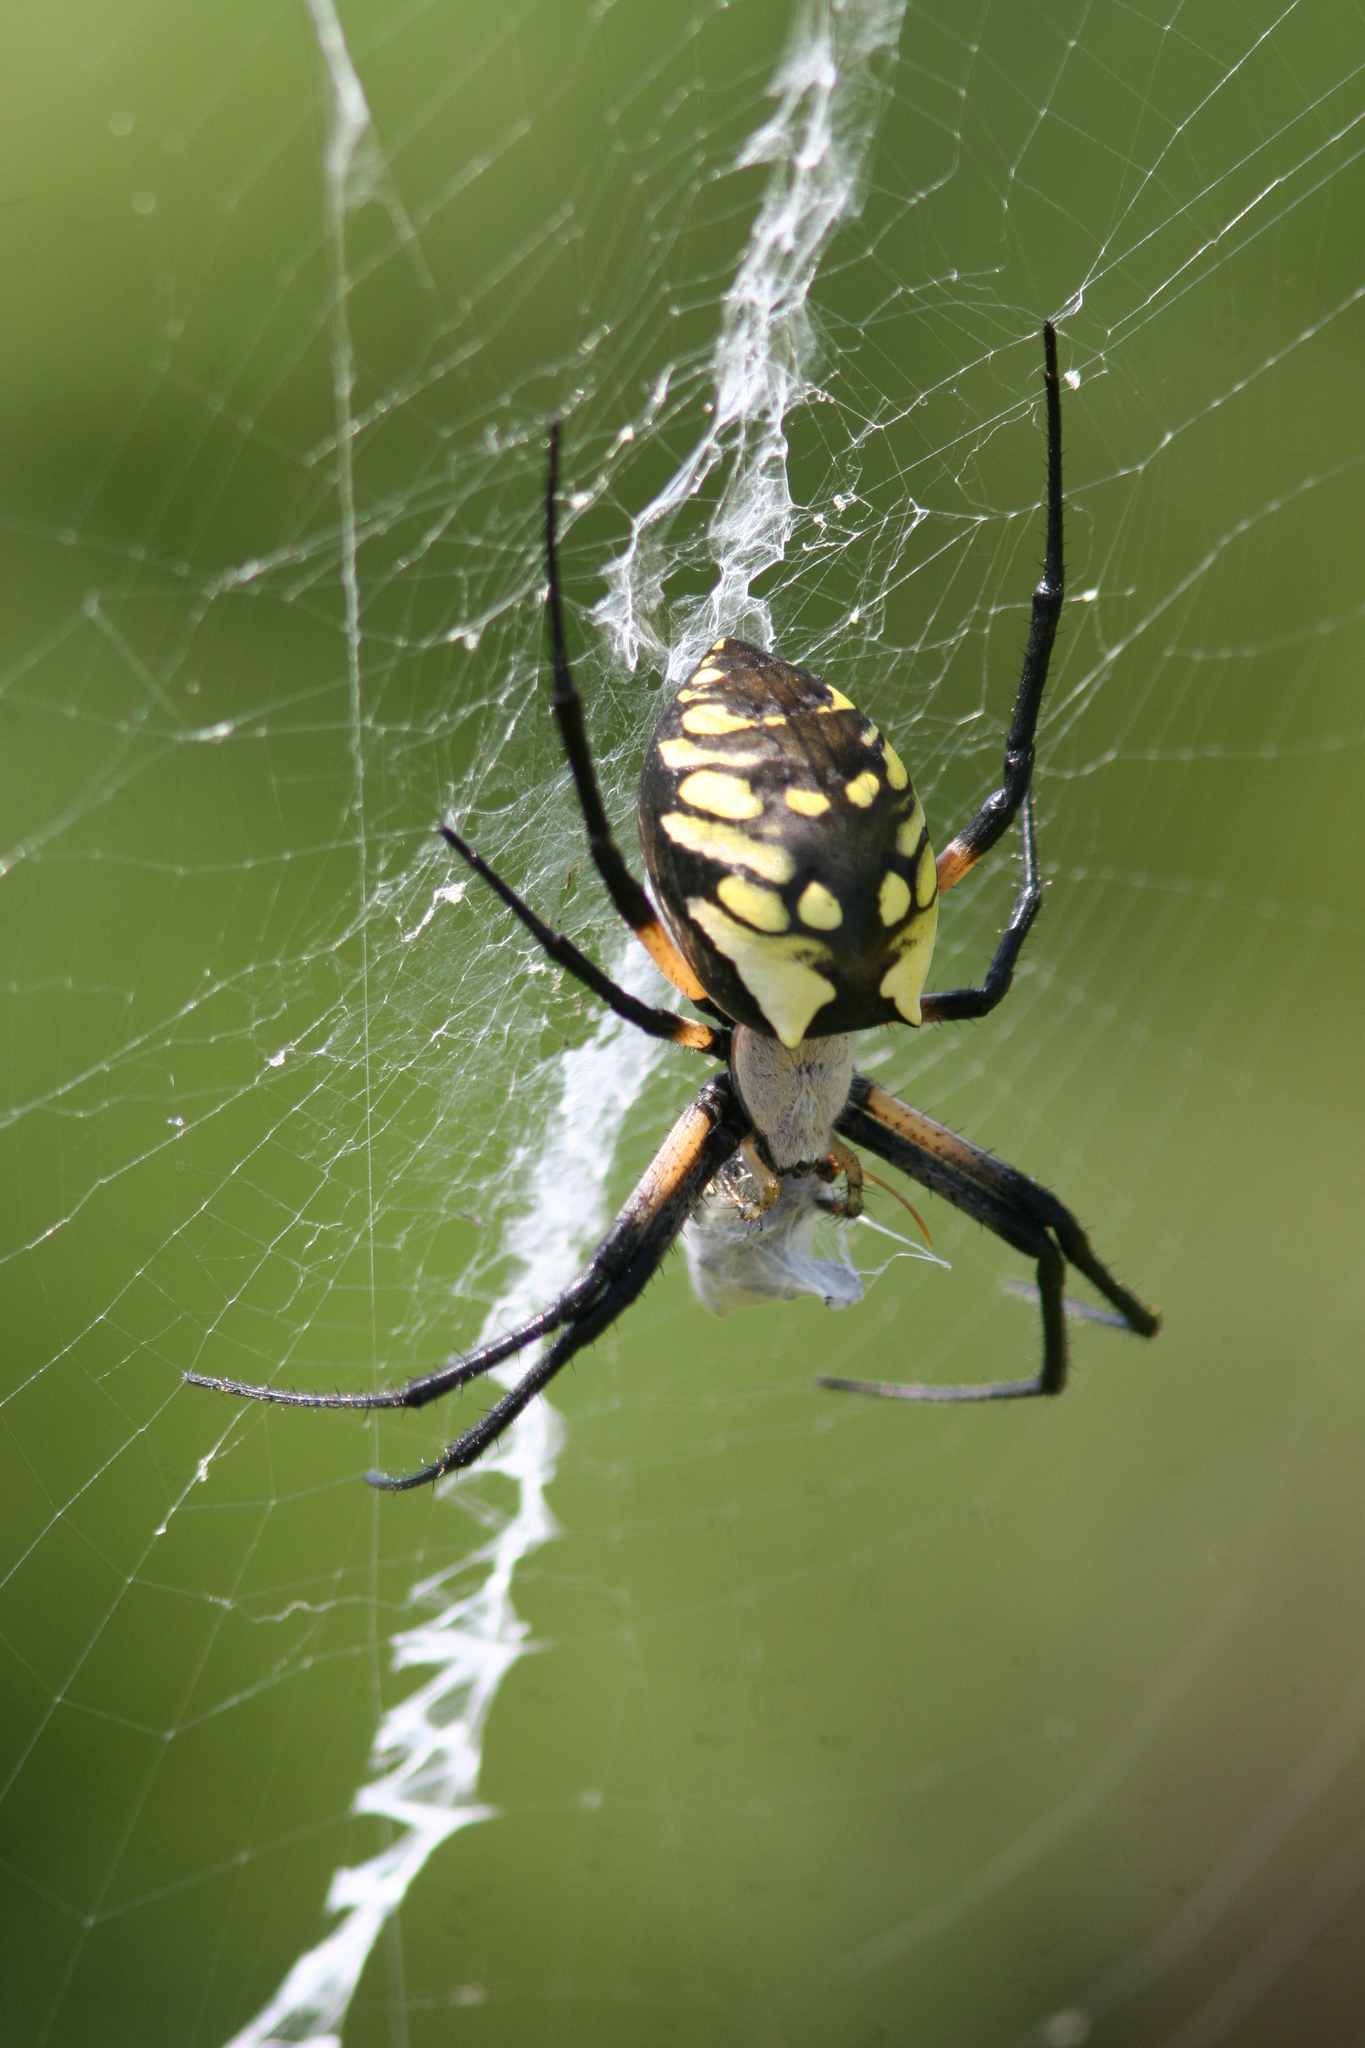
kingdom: Animalia
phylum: Arthropoda
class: Arachnida
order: Araneae
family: Araneidae
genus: Argiope
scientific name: Argiope aurantia
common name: Orb weavers
